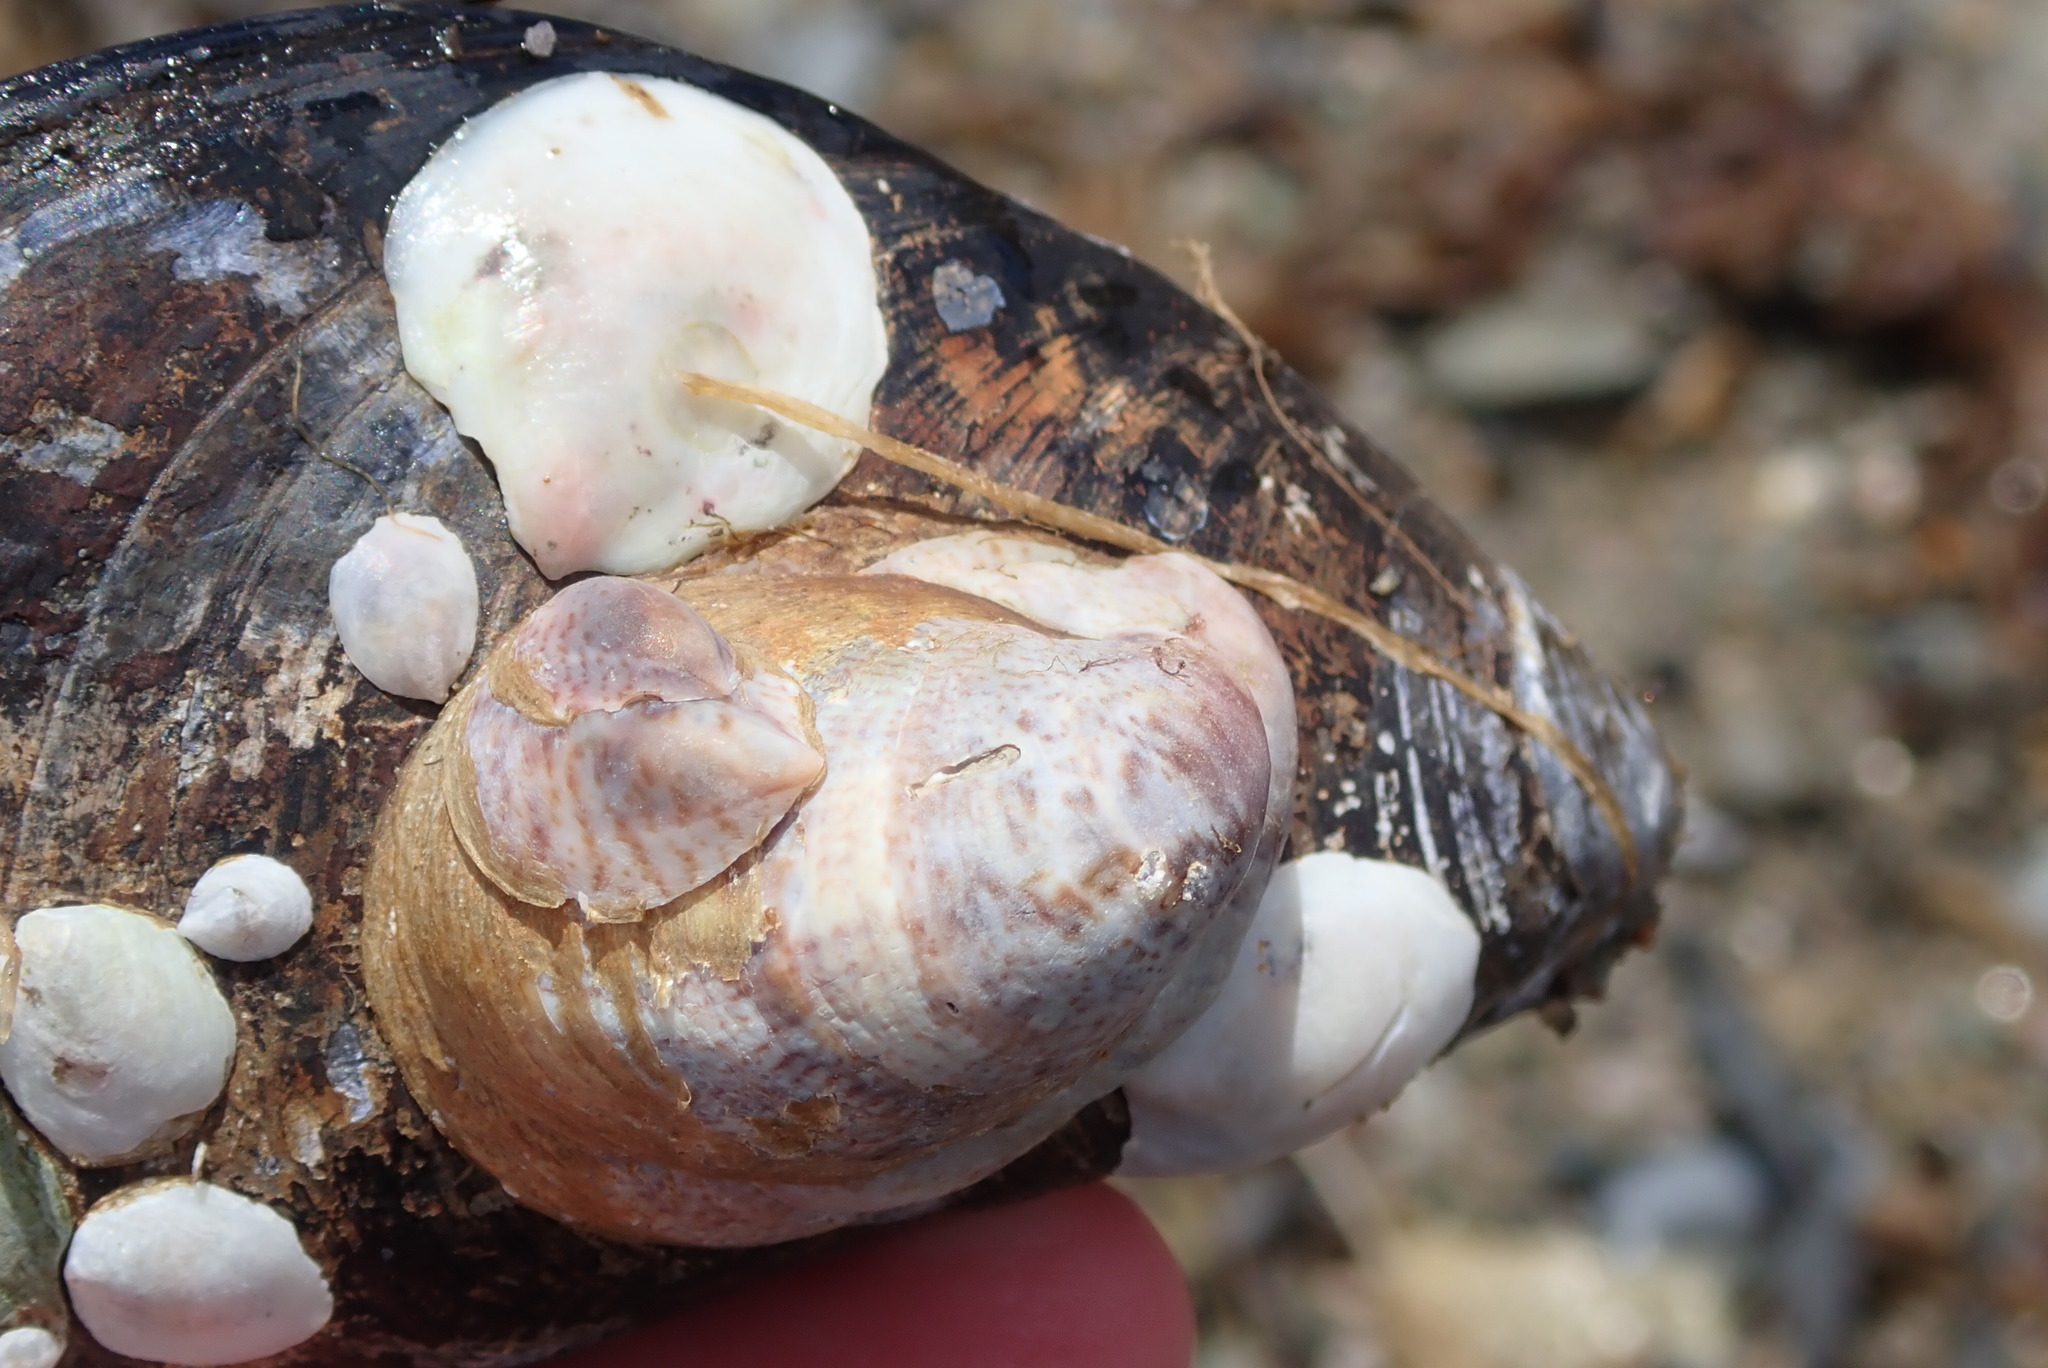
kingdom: Animalia
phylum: Mollusca
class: Gastropoda
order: Littorinimorpha
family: Calyptraeidae
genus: Crepidula
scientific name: Crepidula fornicata
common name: Slipper limpet
